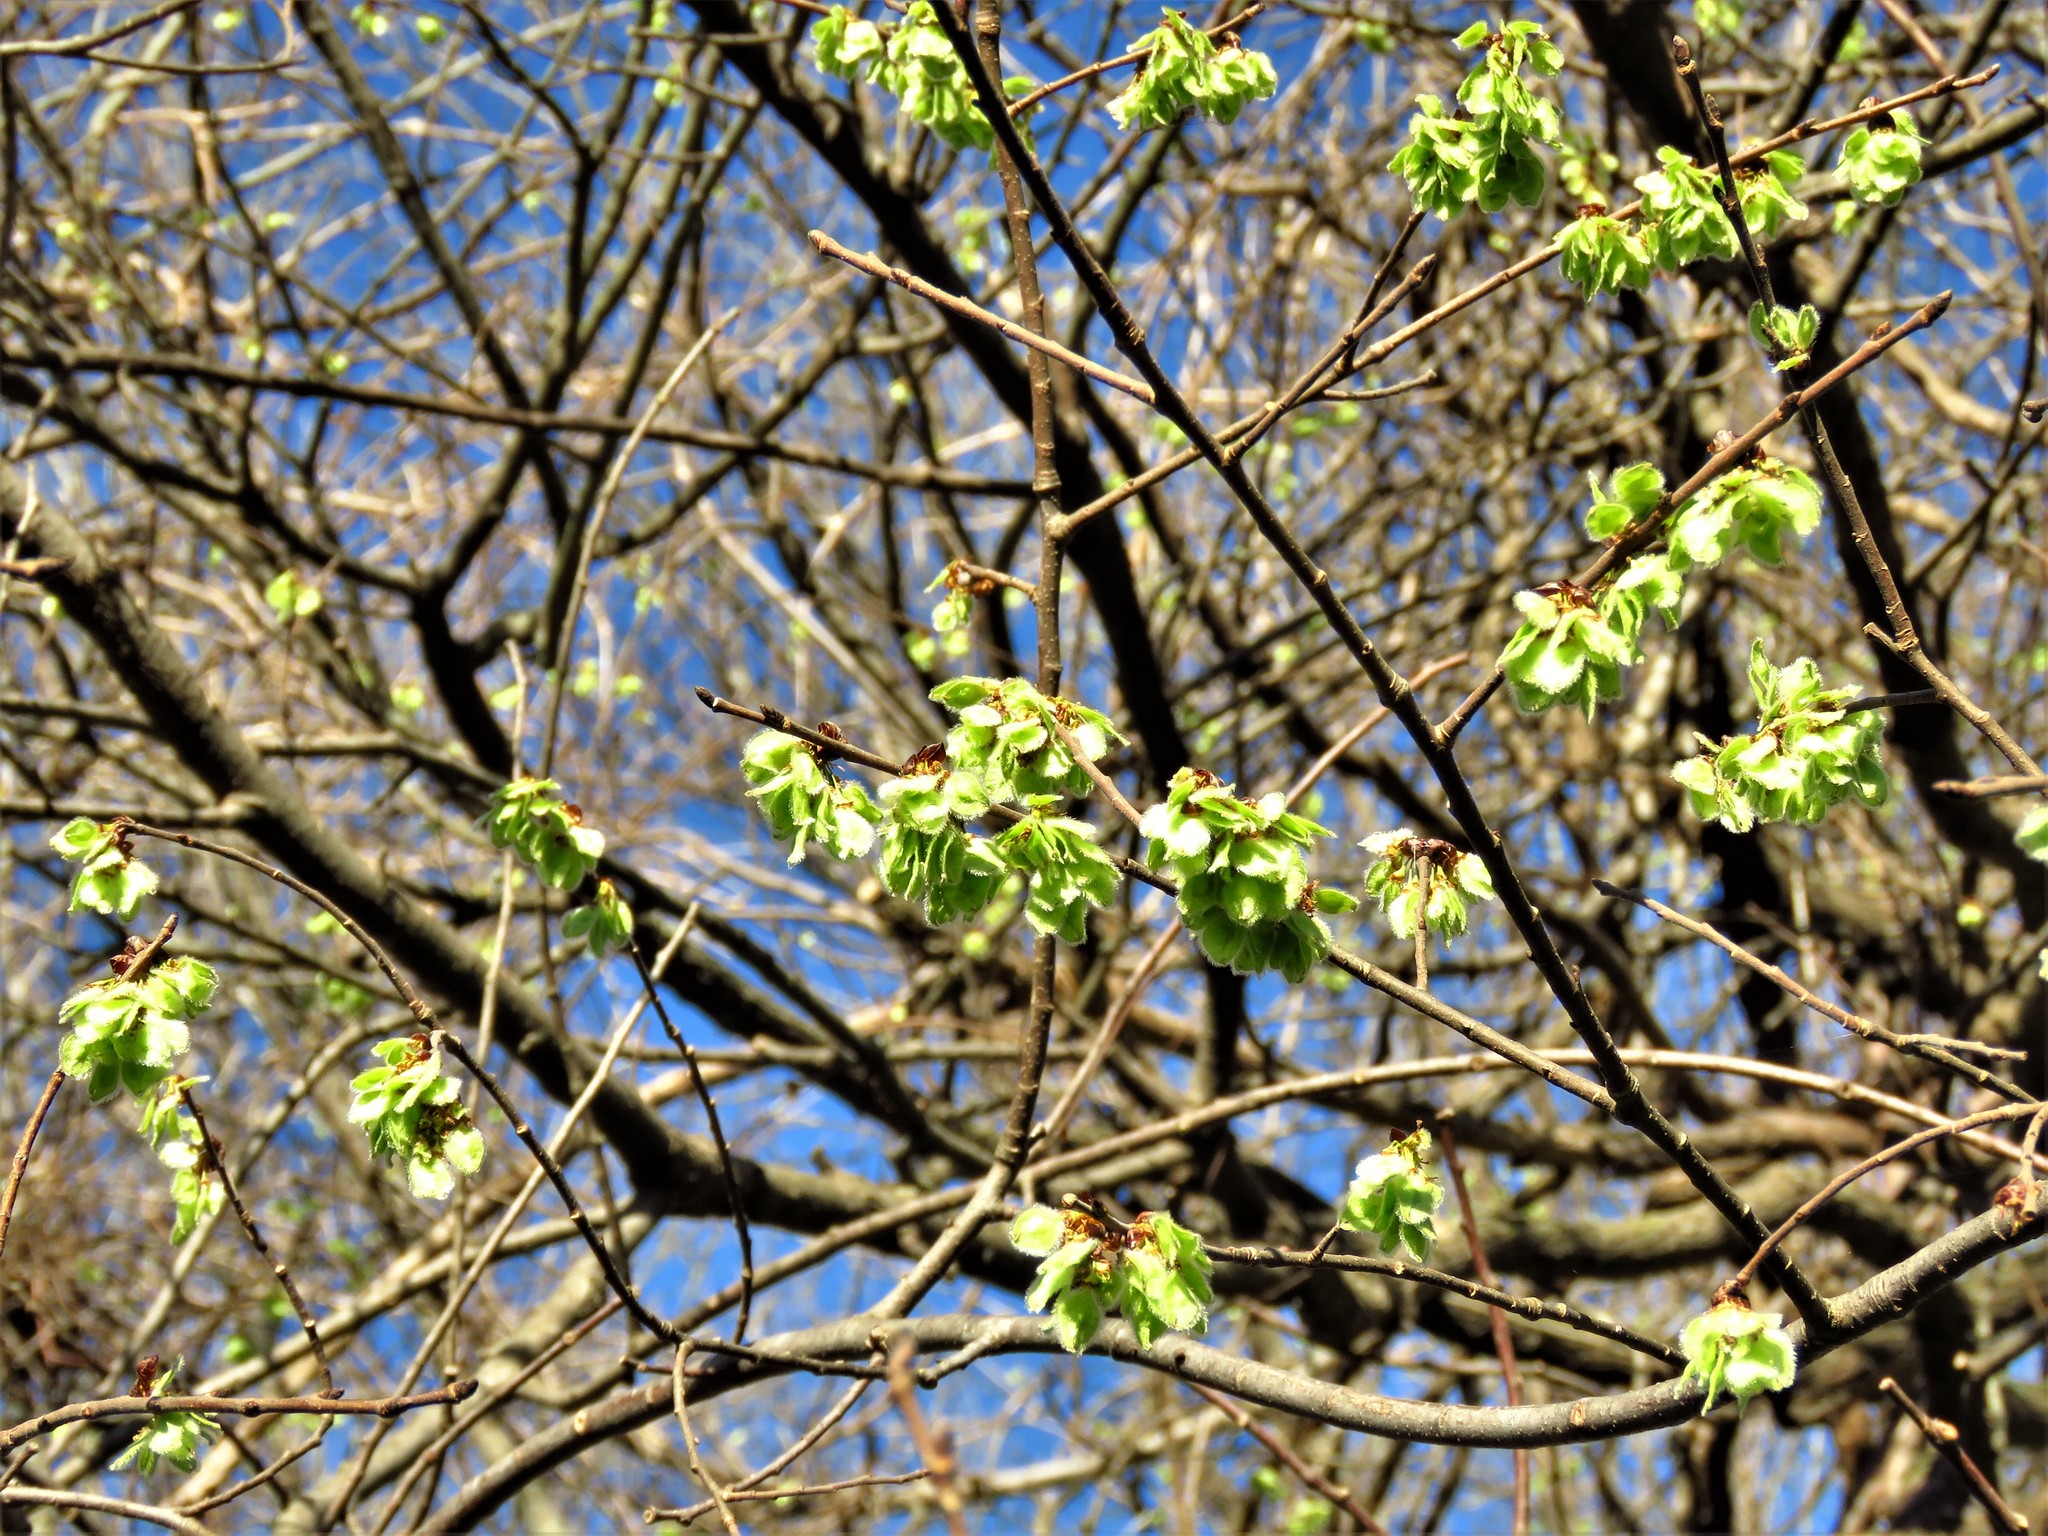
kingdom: Plantae
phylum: Tracheophyta
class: Magnoliopsida
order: Rosales
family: Ulmaceae
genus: Ulmus
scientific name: Ulmus americana
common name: American elm
